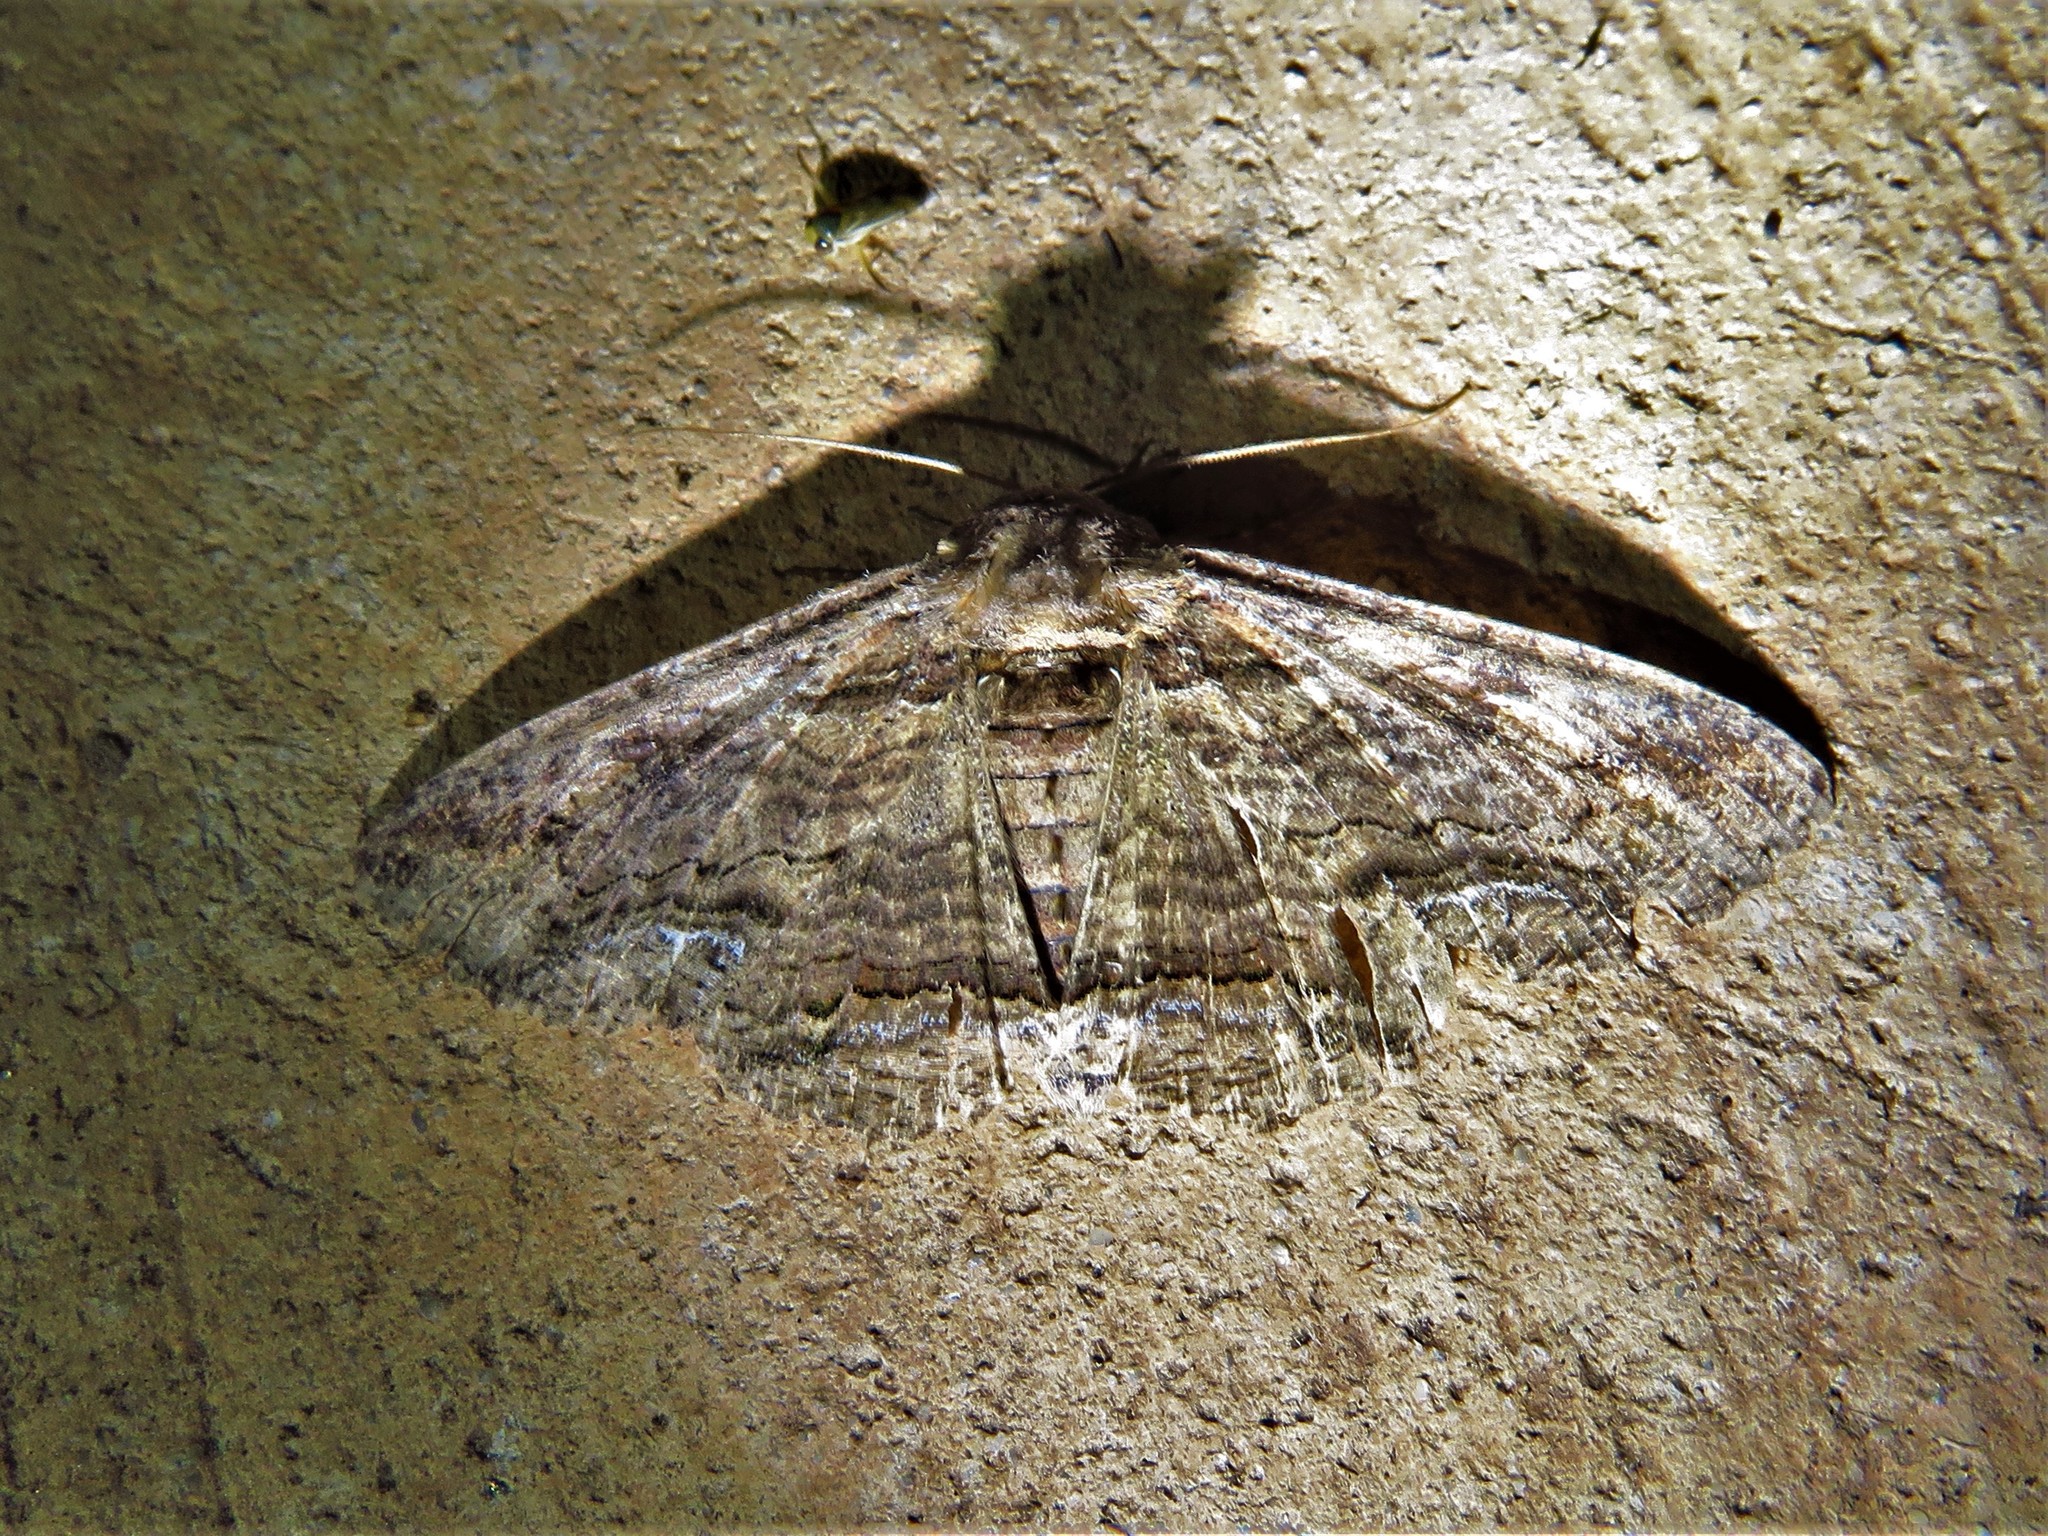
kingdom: Animalia
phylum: Arthropoda
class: Insecta
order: Lepidoptera
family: Erebidae
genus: Zale
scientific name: Zale lunata
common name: Lunate zale moth
